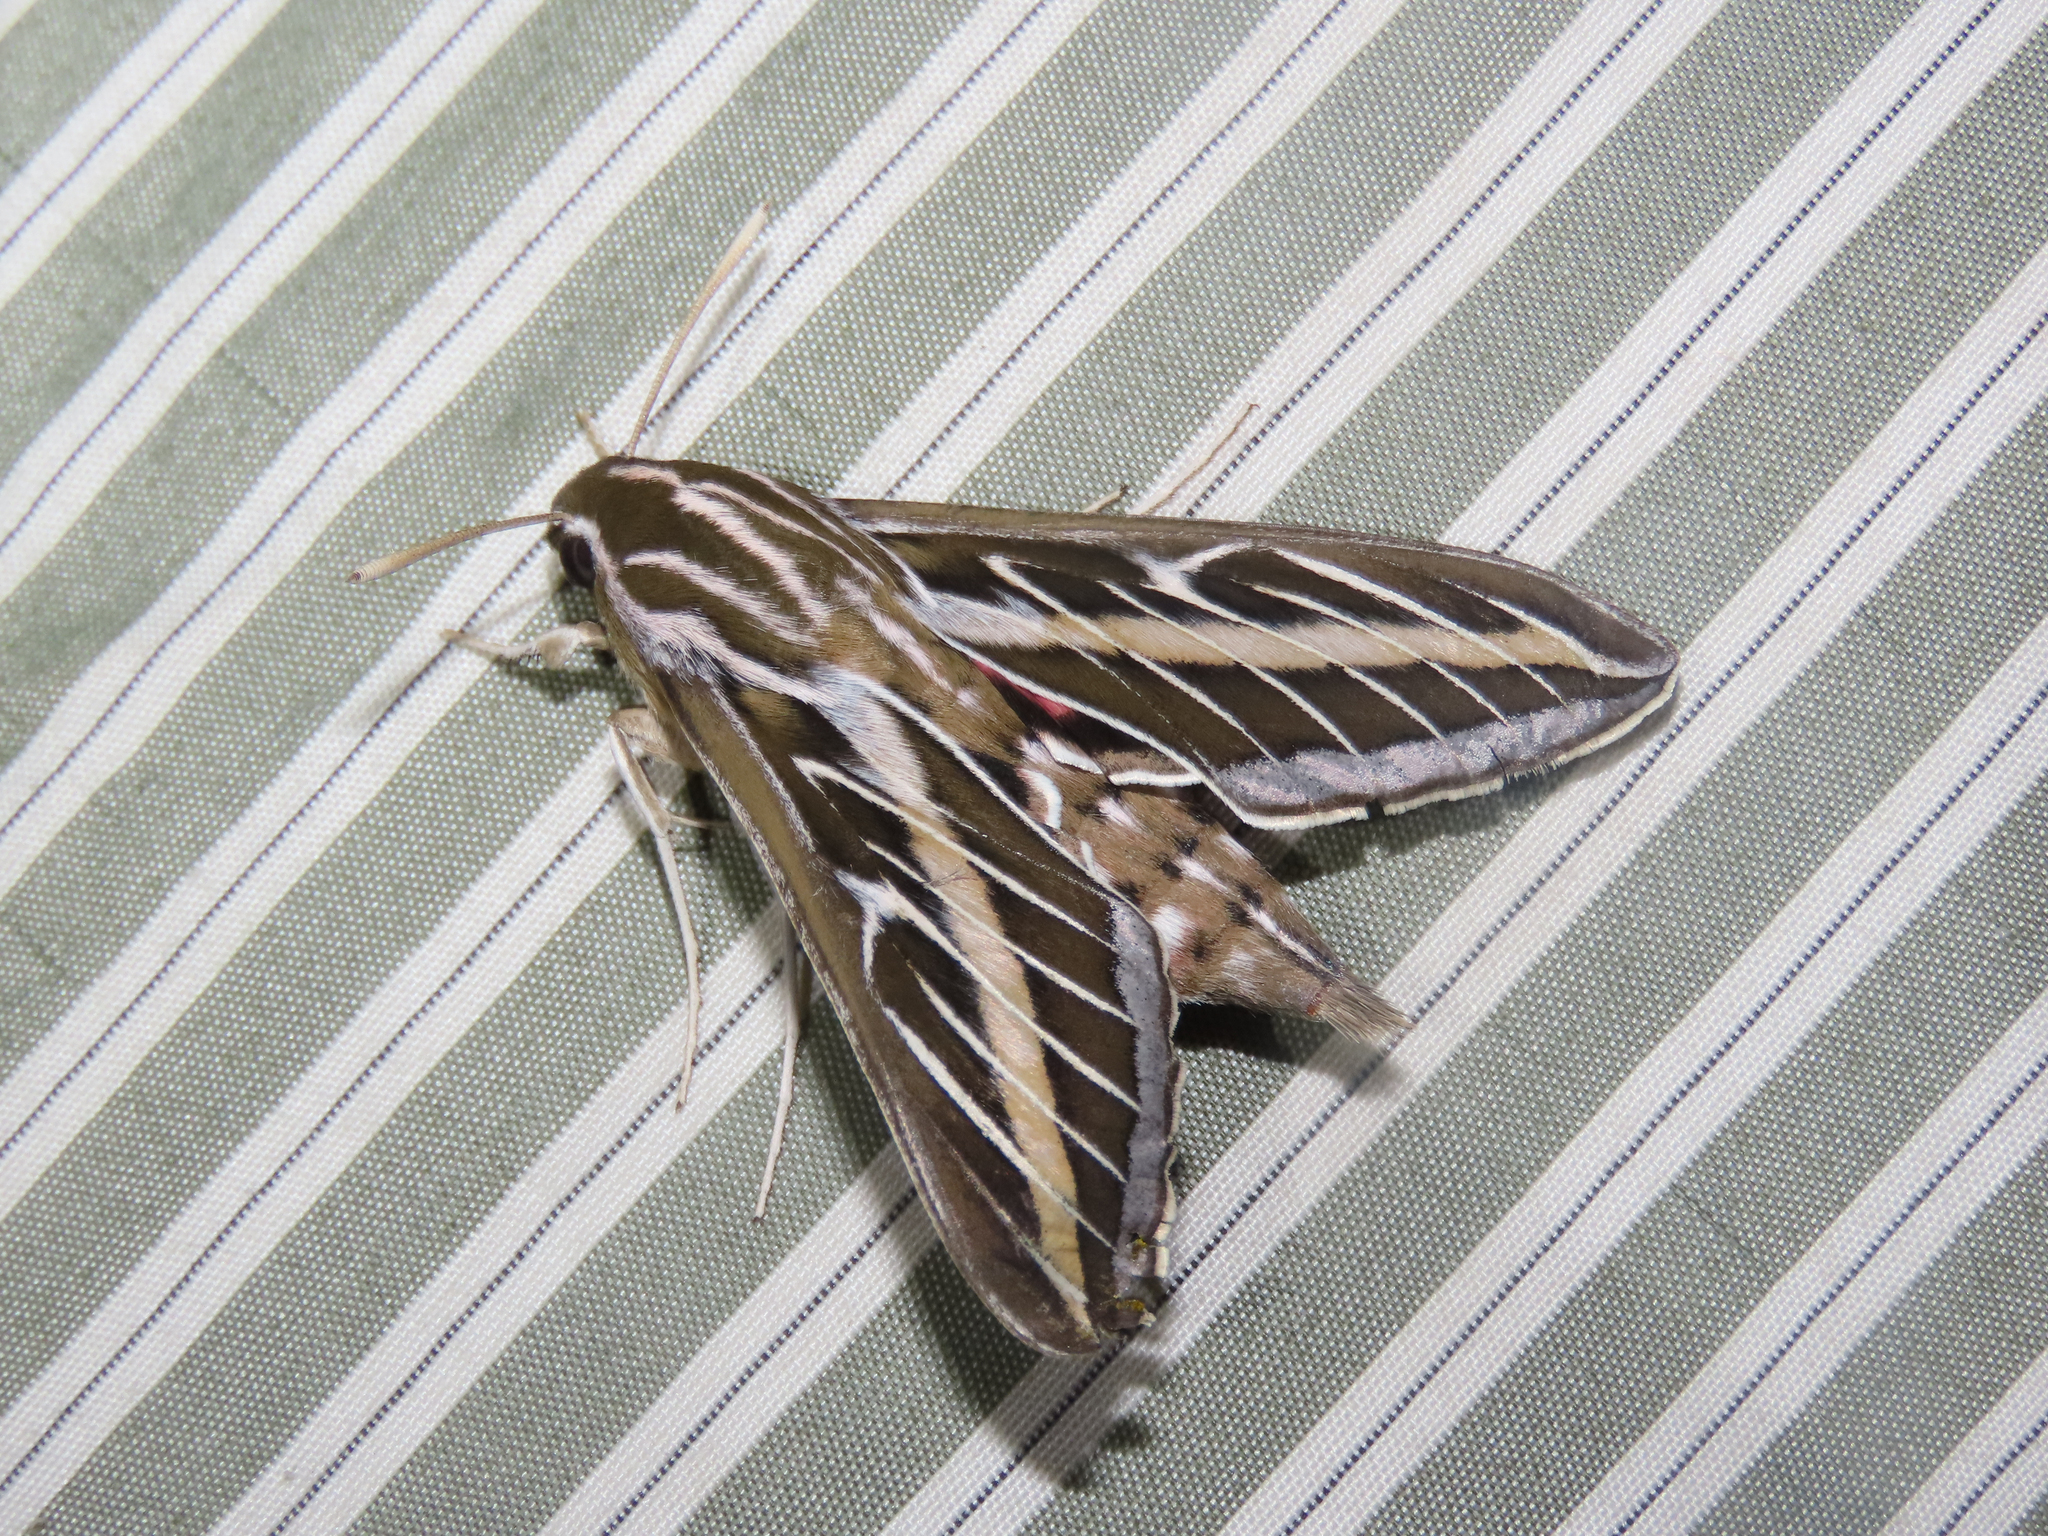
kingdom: Animalia
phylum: Arthropoda
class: Insecta
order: Lepidoptera
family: Sphingidae
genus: Hyles
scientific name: Hyles lineata
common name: White-lined sphinx
